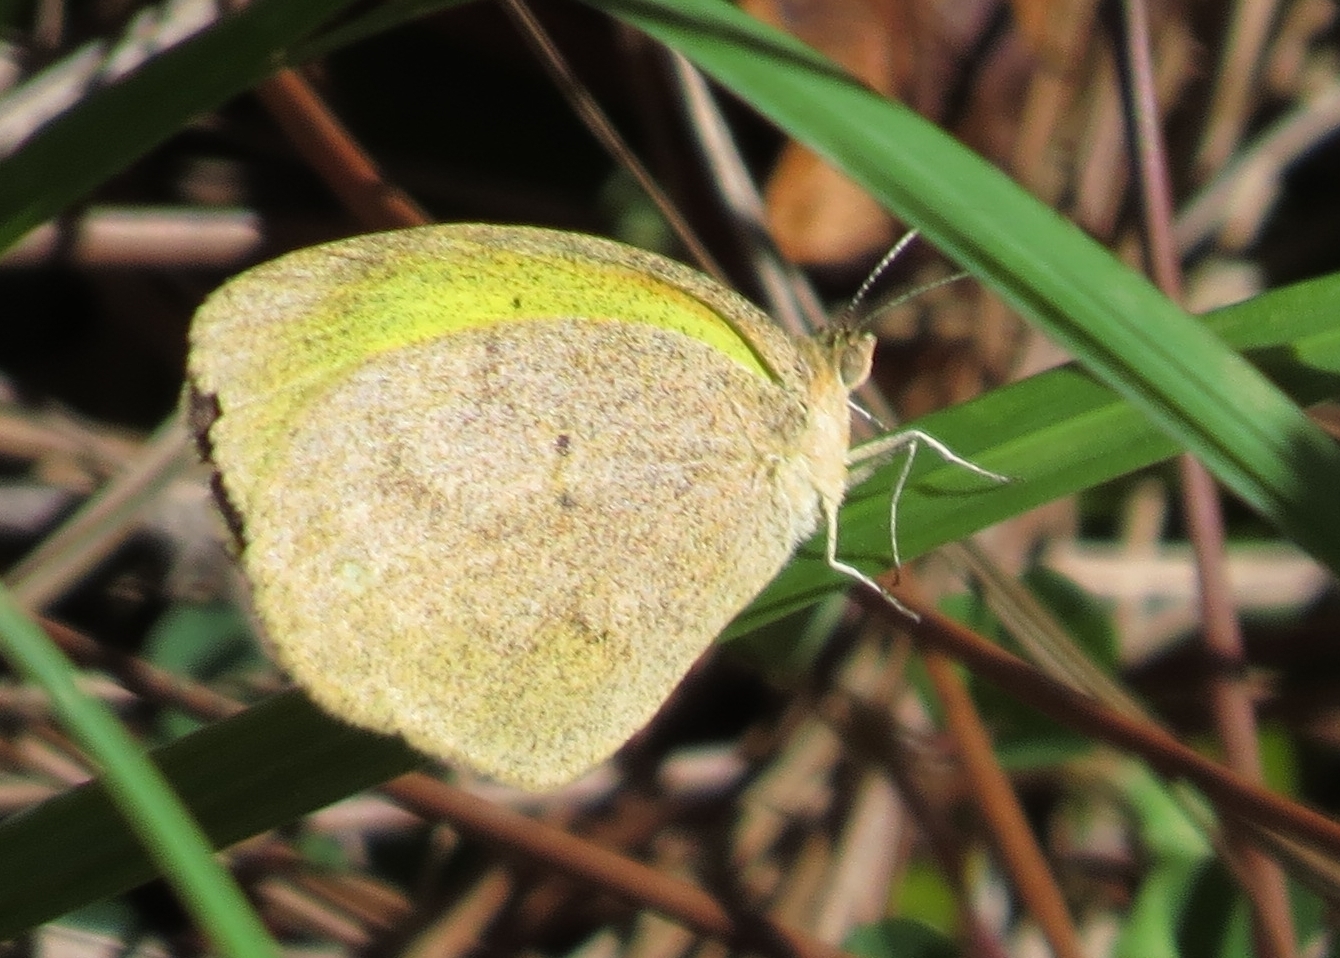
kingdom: Animalia
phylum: Arthropoda
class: Insecta
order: Lepidoptera
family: Pieridae
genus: Eurema
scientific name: Eurema daira
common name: Barred sulphur
